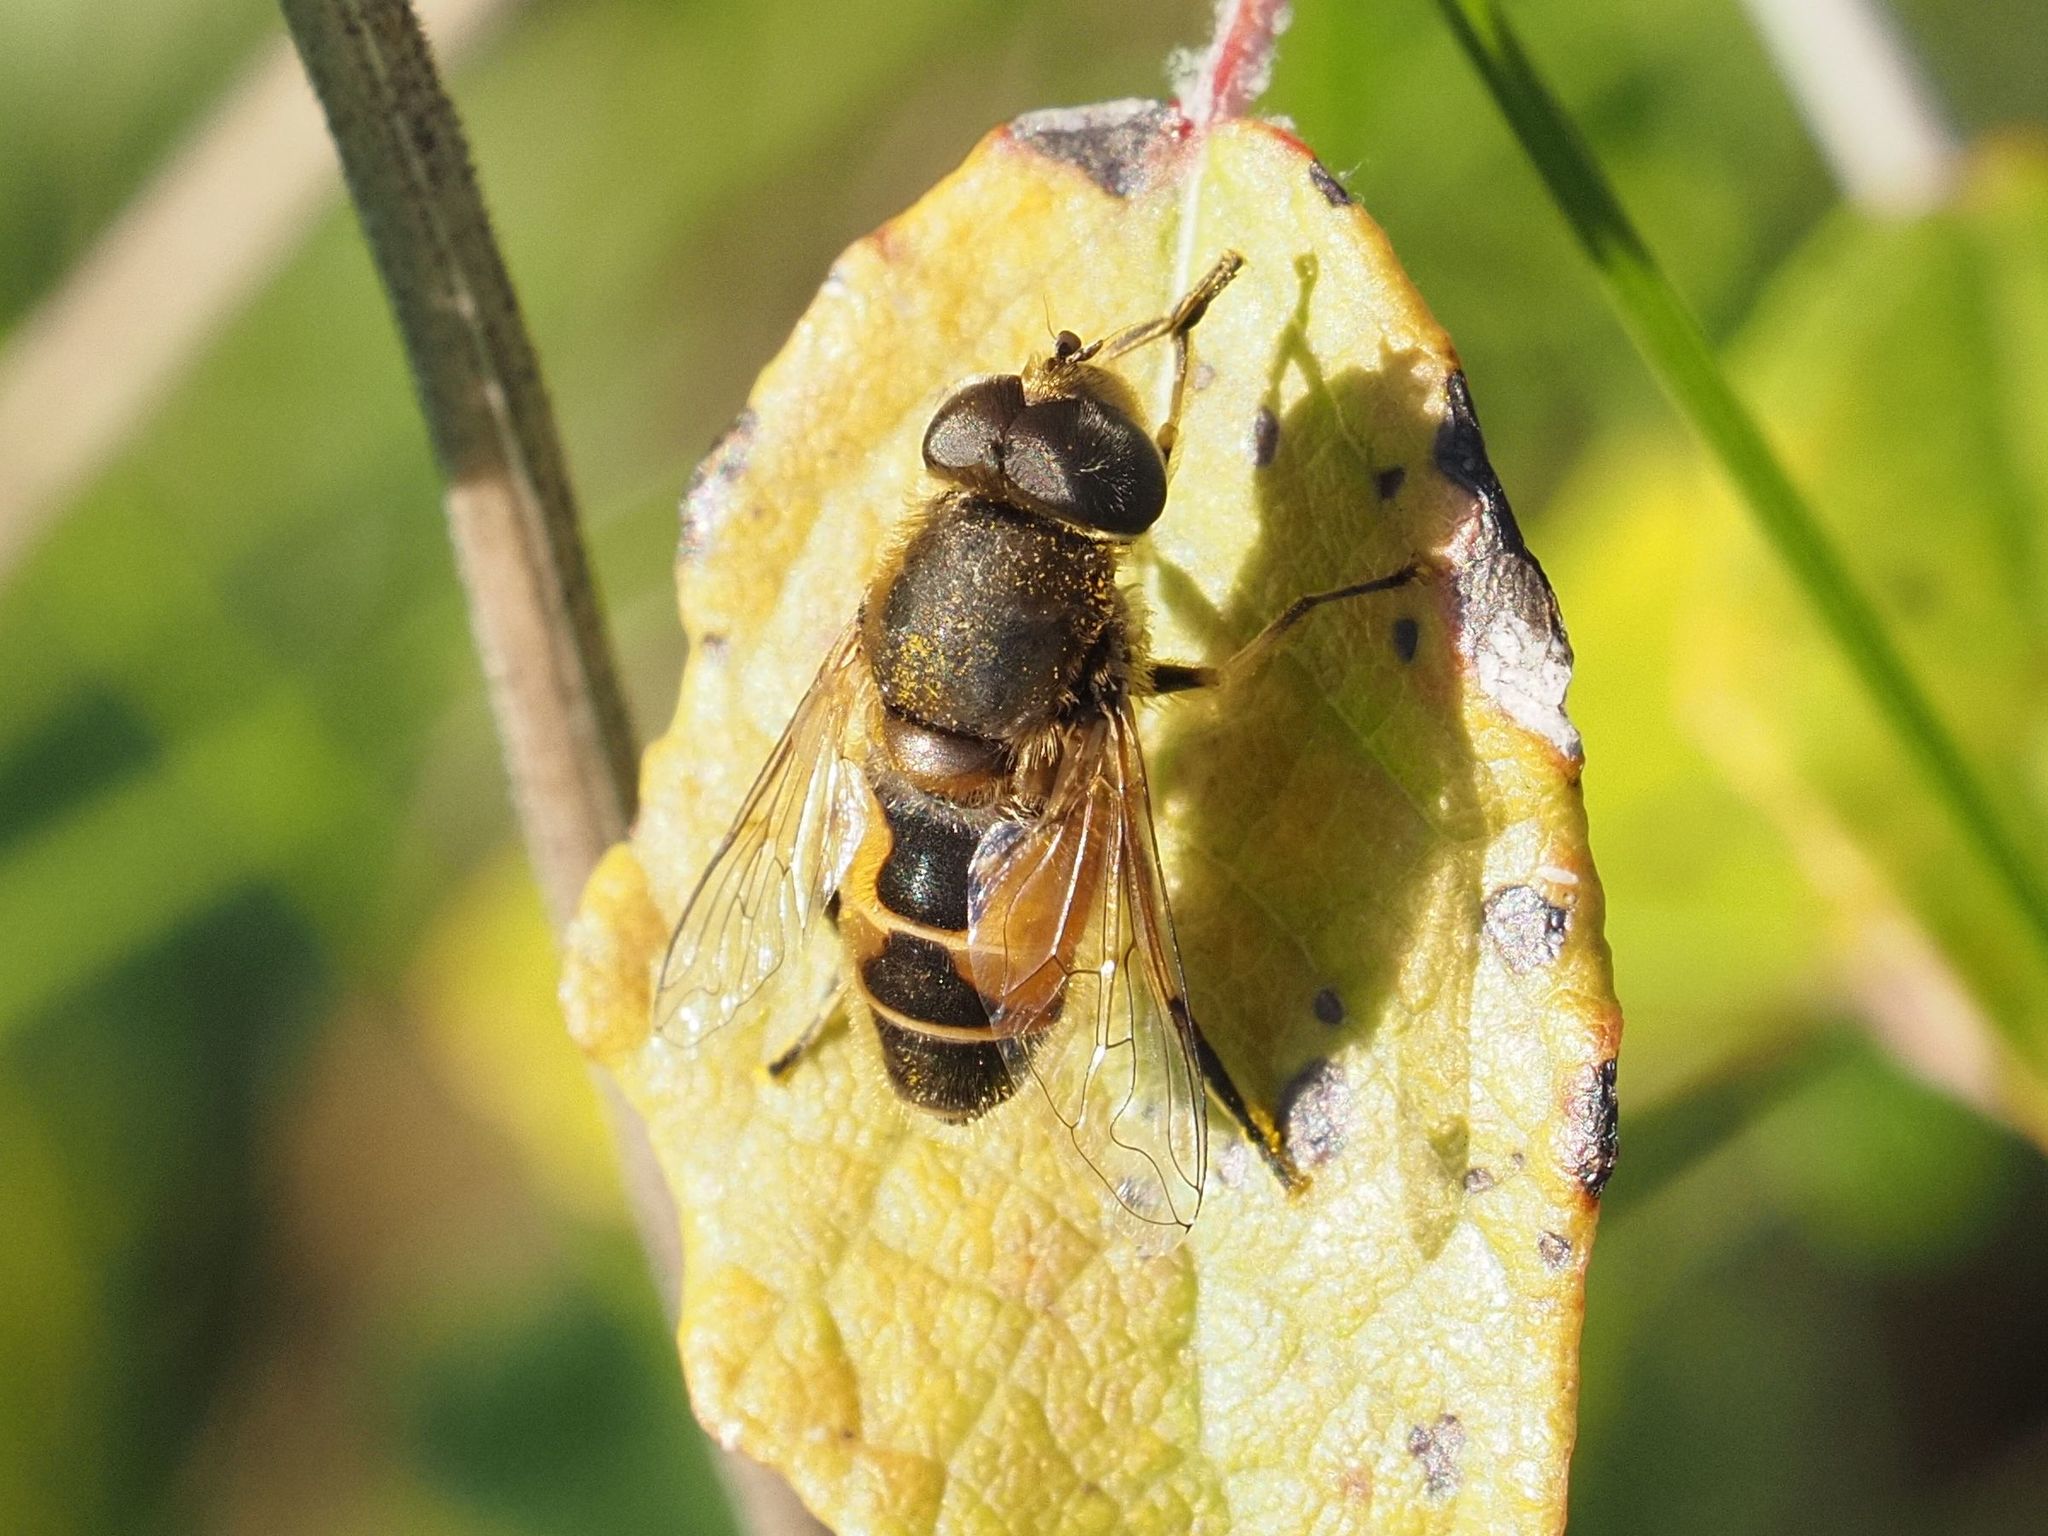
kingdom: Animalia
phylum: Arthropoda
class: Insecta
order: Diptera
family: Syrphidae
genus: Eristalis
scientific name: Eristalis arbustorum
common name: Hover fly
